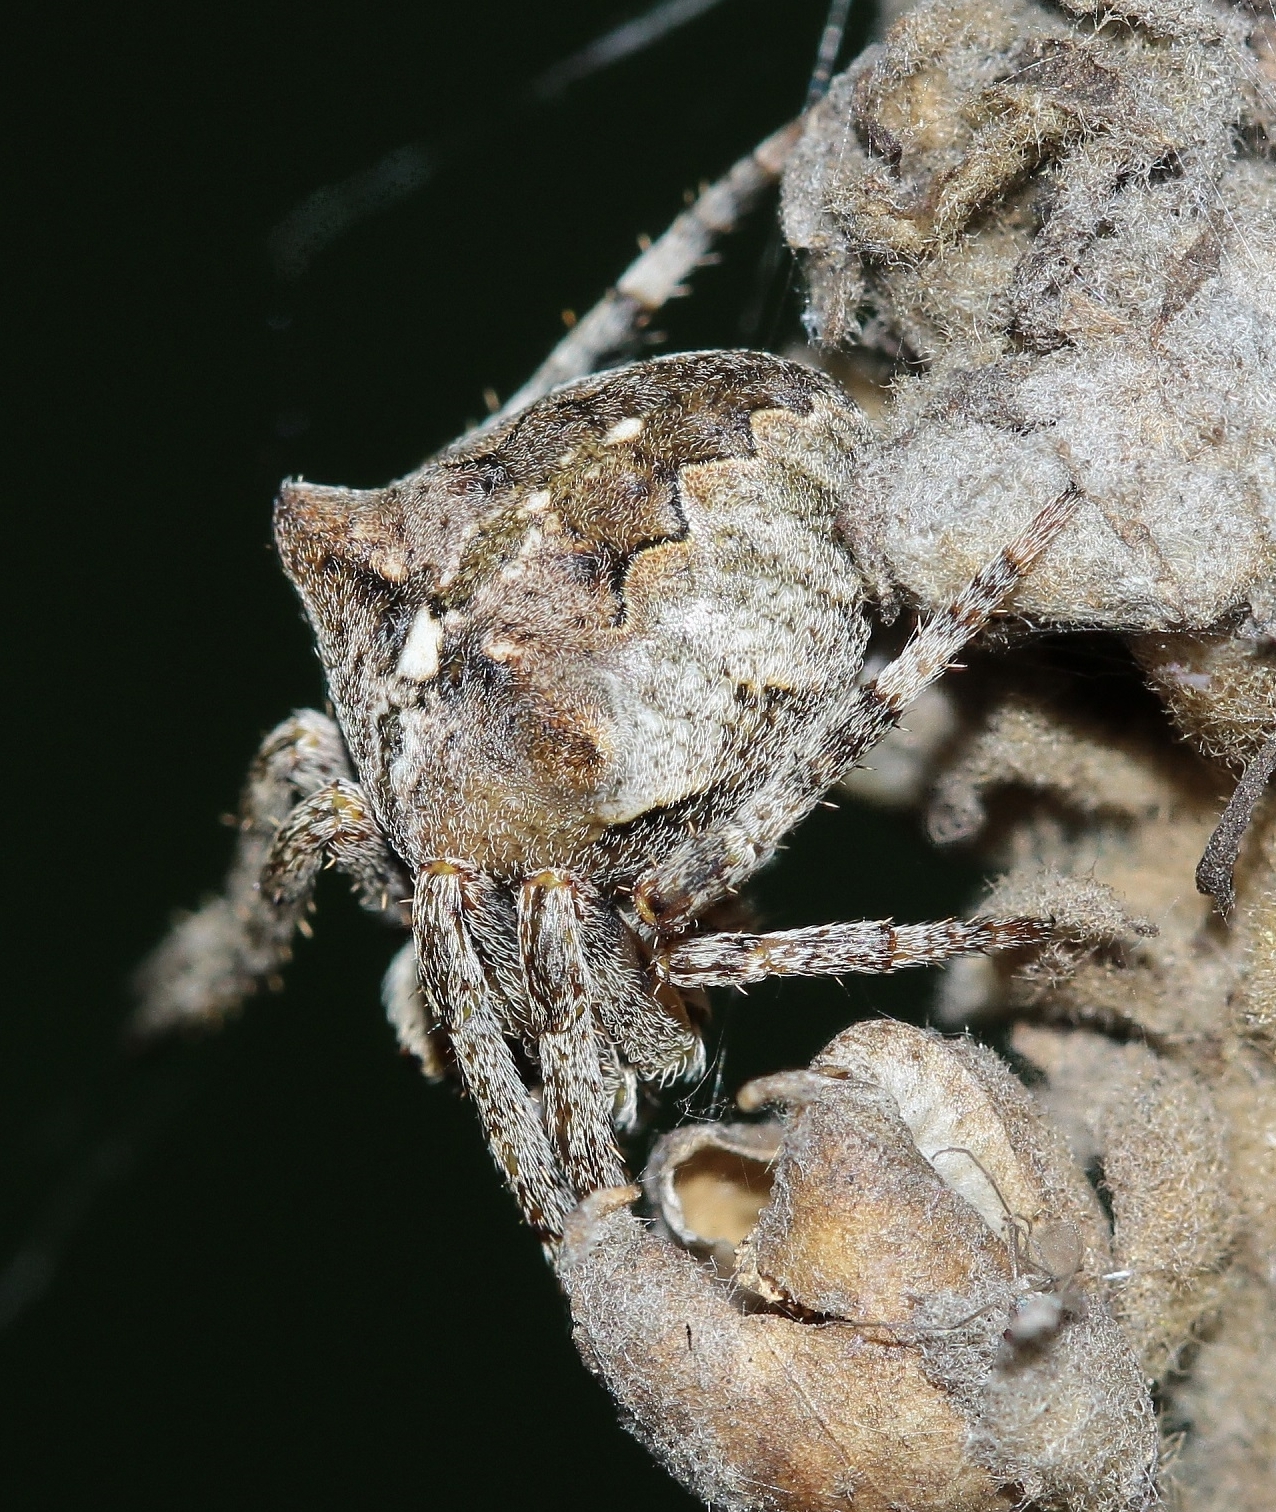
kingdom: Animalia
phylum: Arthropoda
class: Arachnida
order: Araneae
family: Araneidae
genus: Araneus
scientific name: Araneus angulatus
